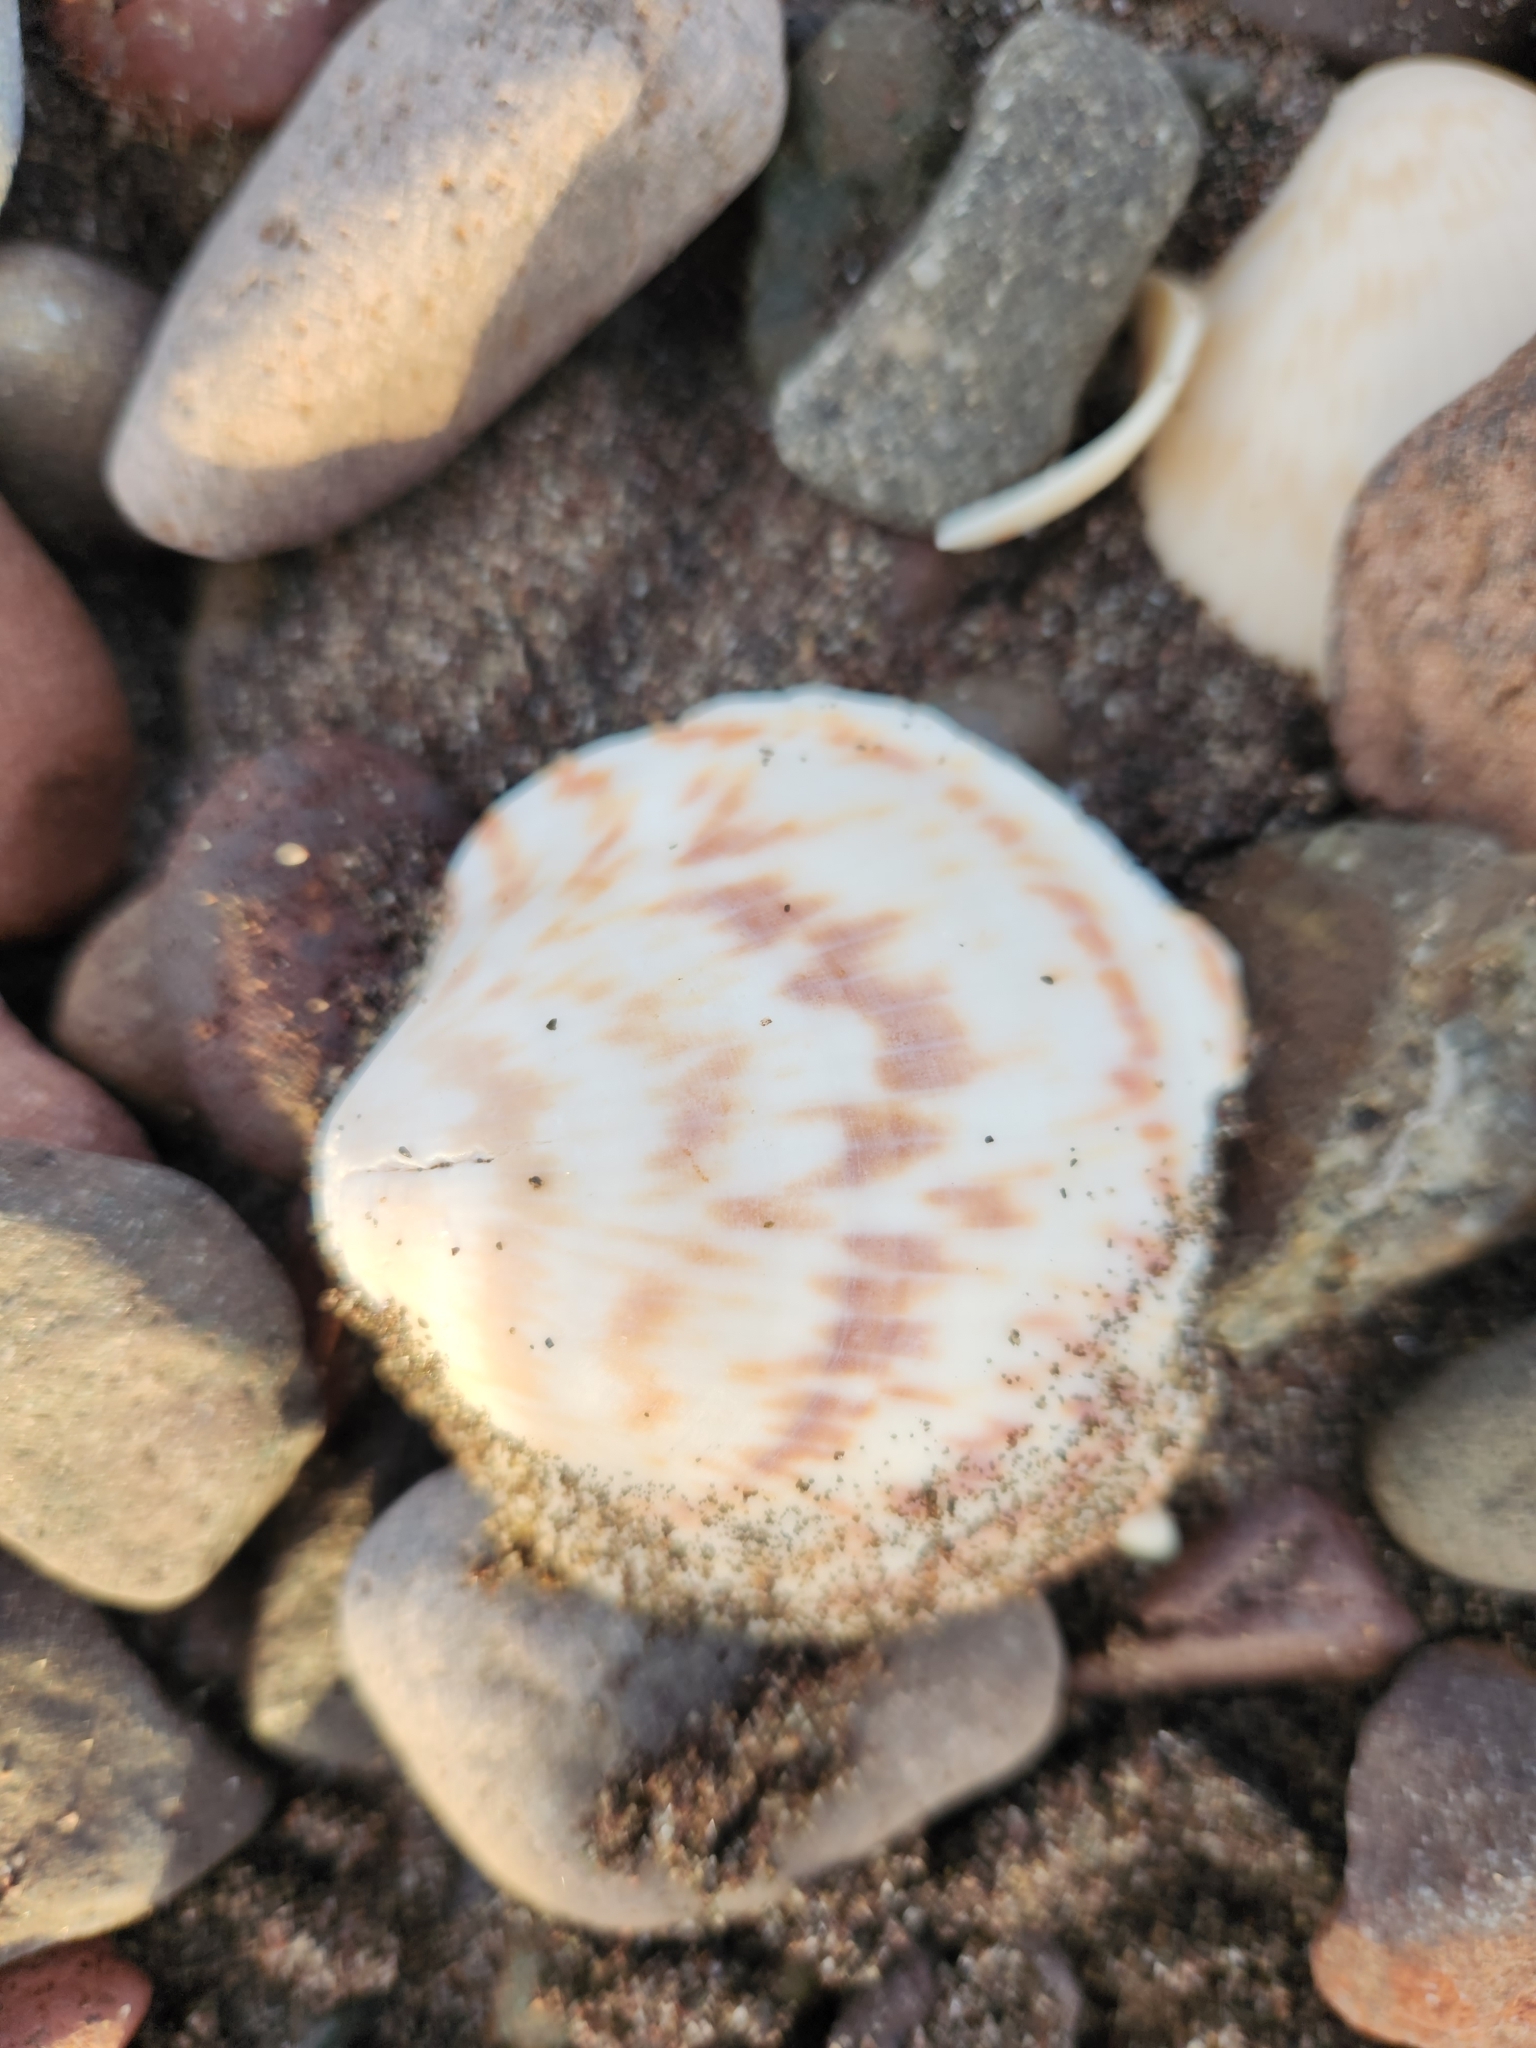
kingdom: Animalia
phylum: Mollusca
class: Bivalvia
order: Arcida
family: Glycymerididae
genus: Glycymeris
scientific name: Glycymeris gigantea
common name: American bittersweet
